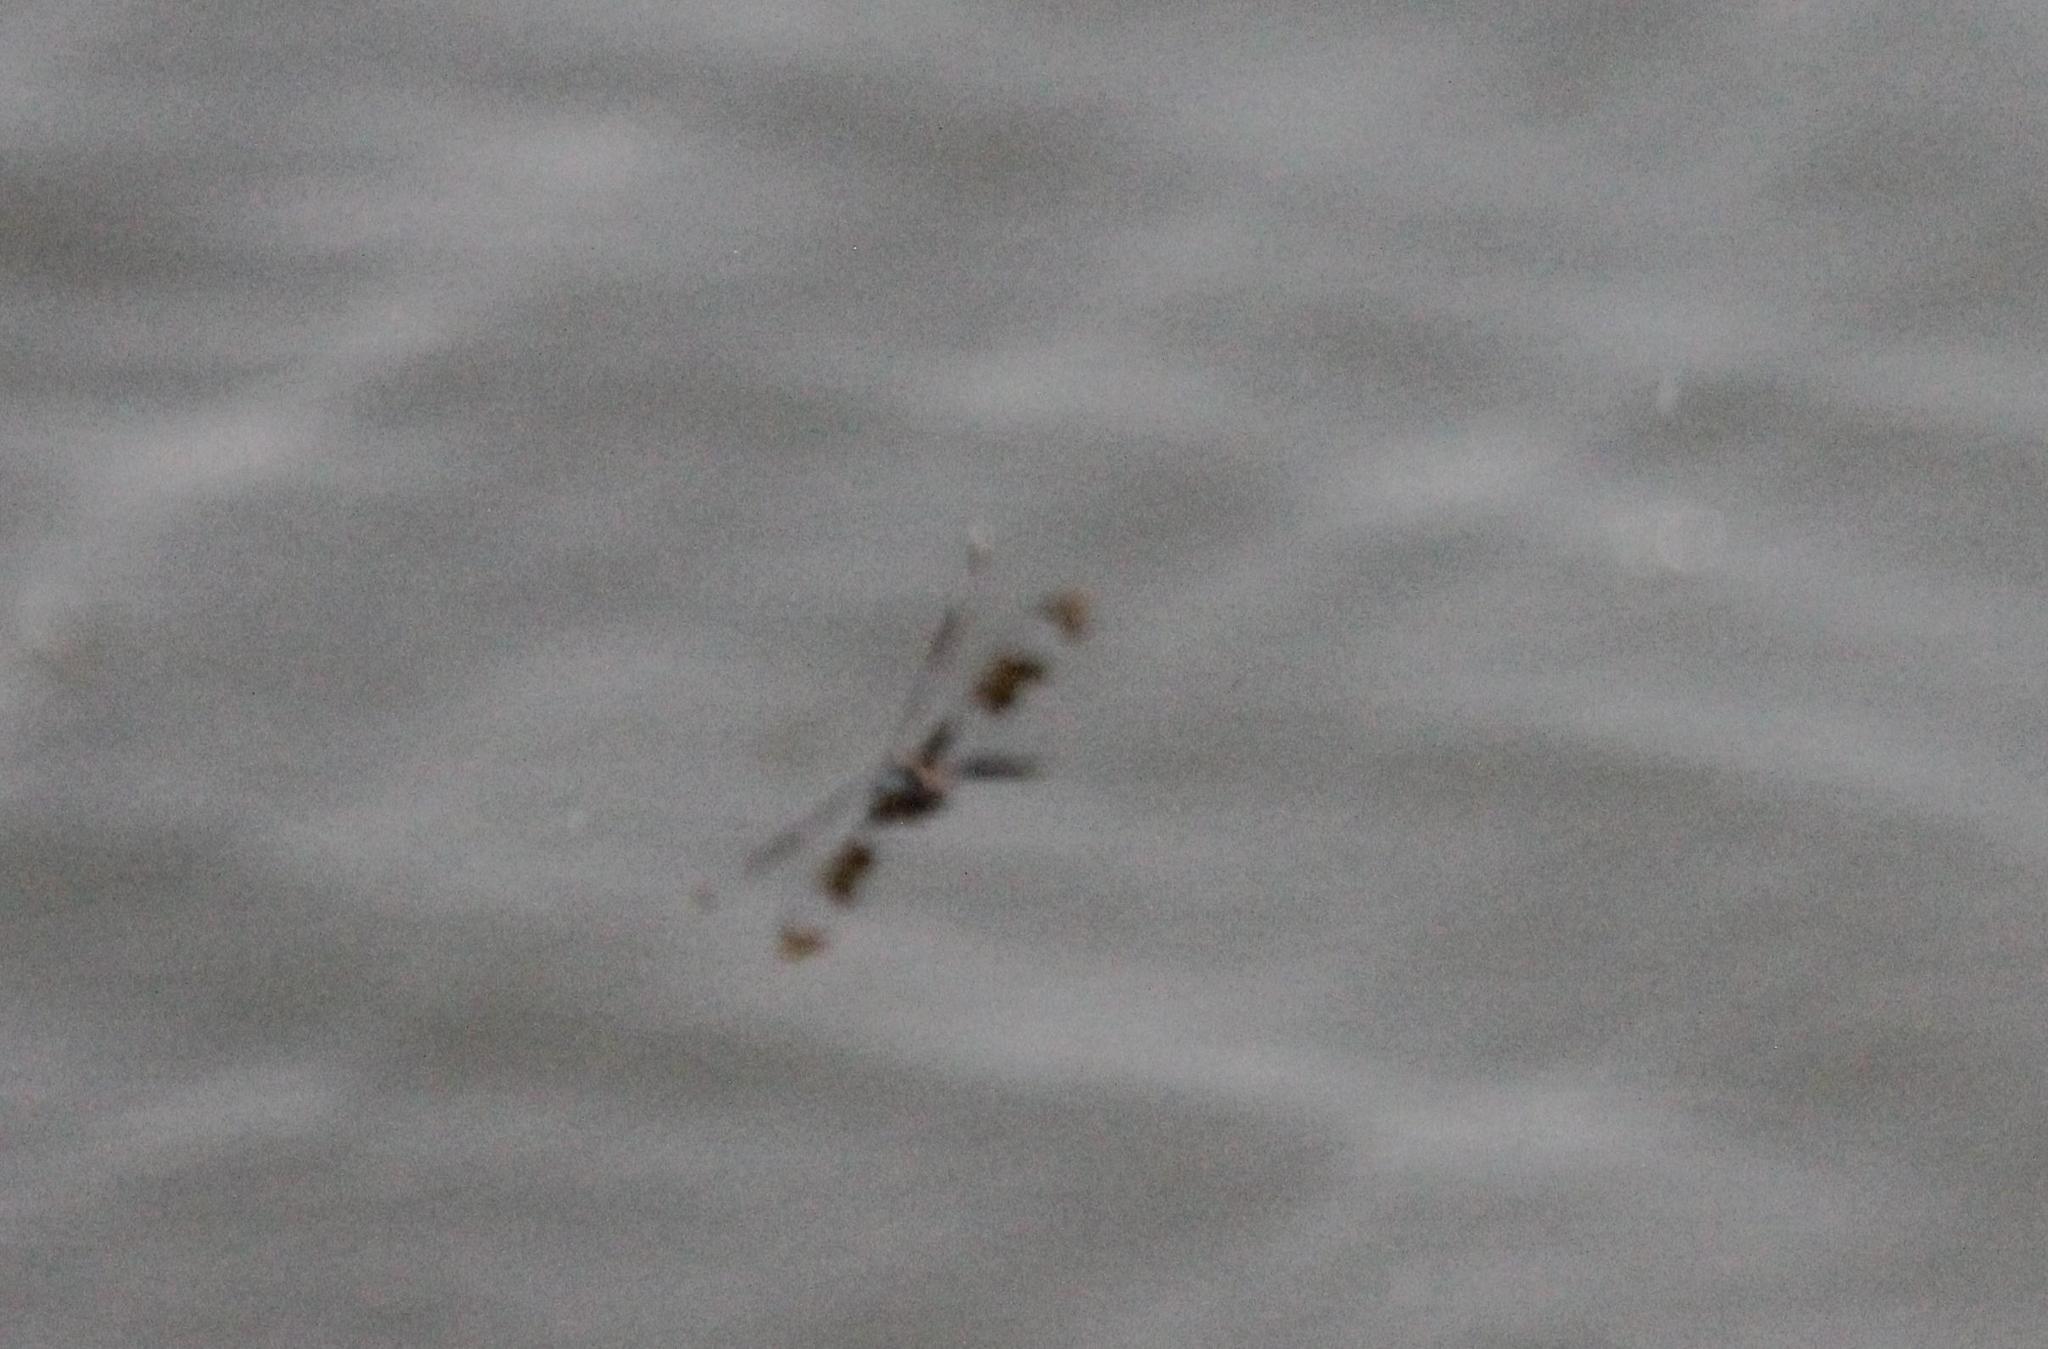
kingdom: Animalia
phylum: Arthropoda
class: Insecta
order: Odonata
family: Corduliidae
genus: Epitheca
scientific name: Epitheca princeps
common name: Prince baskettail
